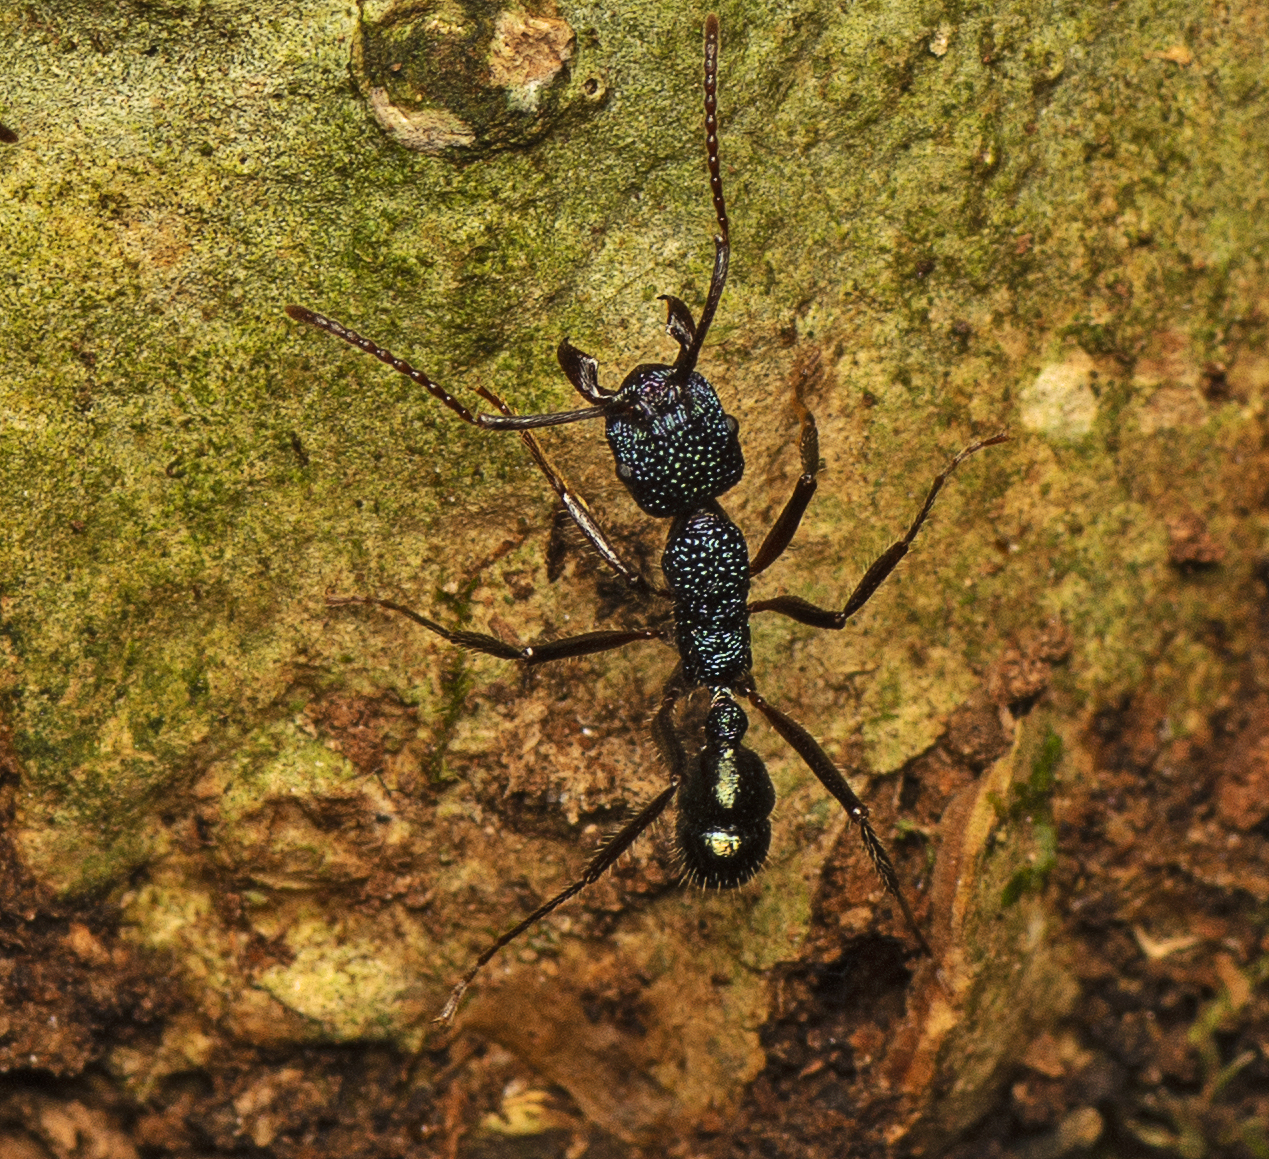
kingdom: Animalia
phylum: Arthropoda
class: Insecta
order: Hymenoptera
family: Formicidae
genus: Rhytidoponera
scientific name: Rhytidoponera purpurea
